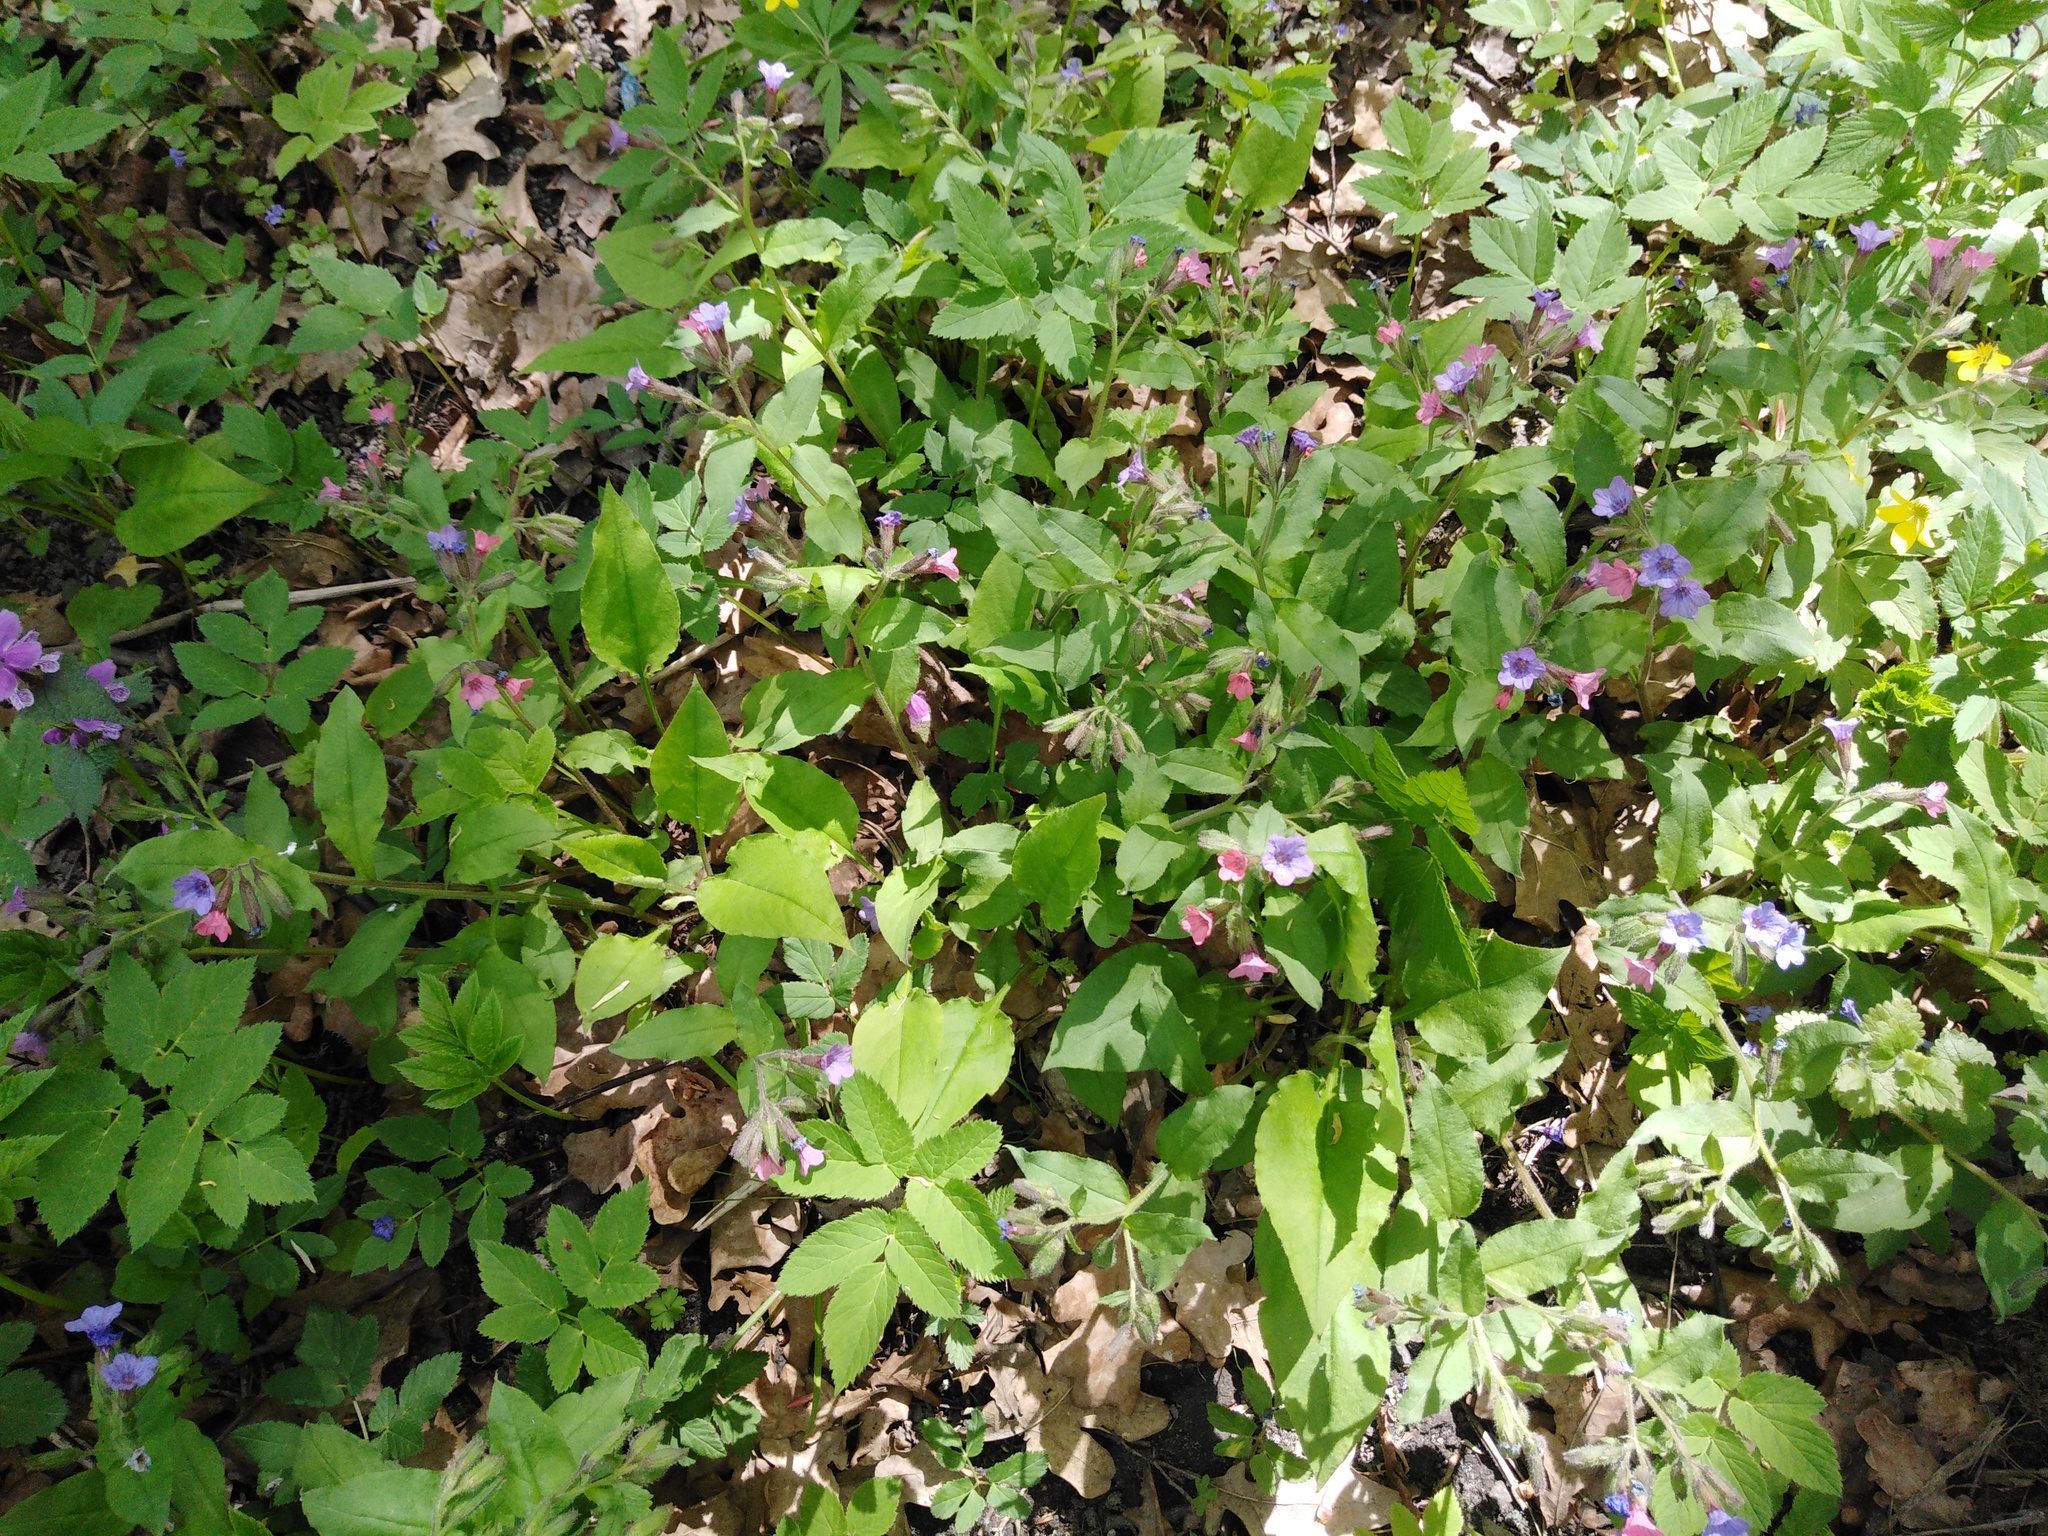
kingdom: Plantae
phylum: Tracheophyta
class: Magnoliopsida
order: Boraginales
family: Boraginaceae
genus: Pulmonaria
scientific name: Pulmonaria obscura
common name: Suffolk lungwort
